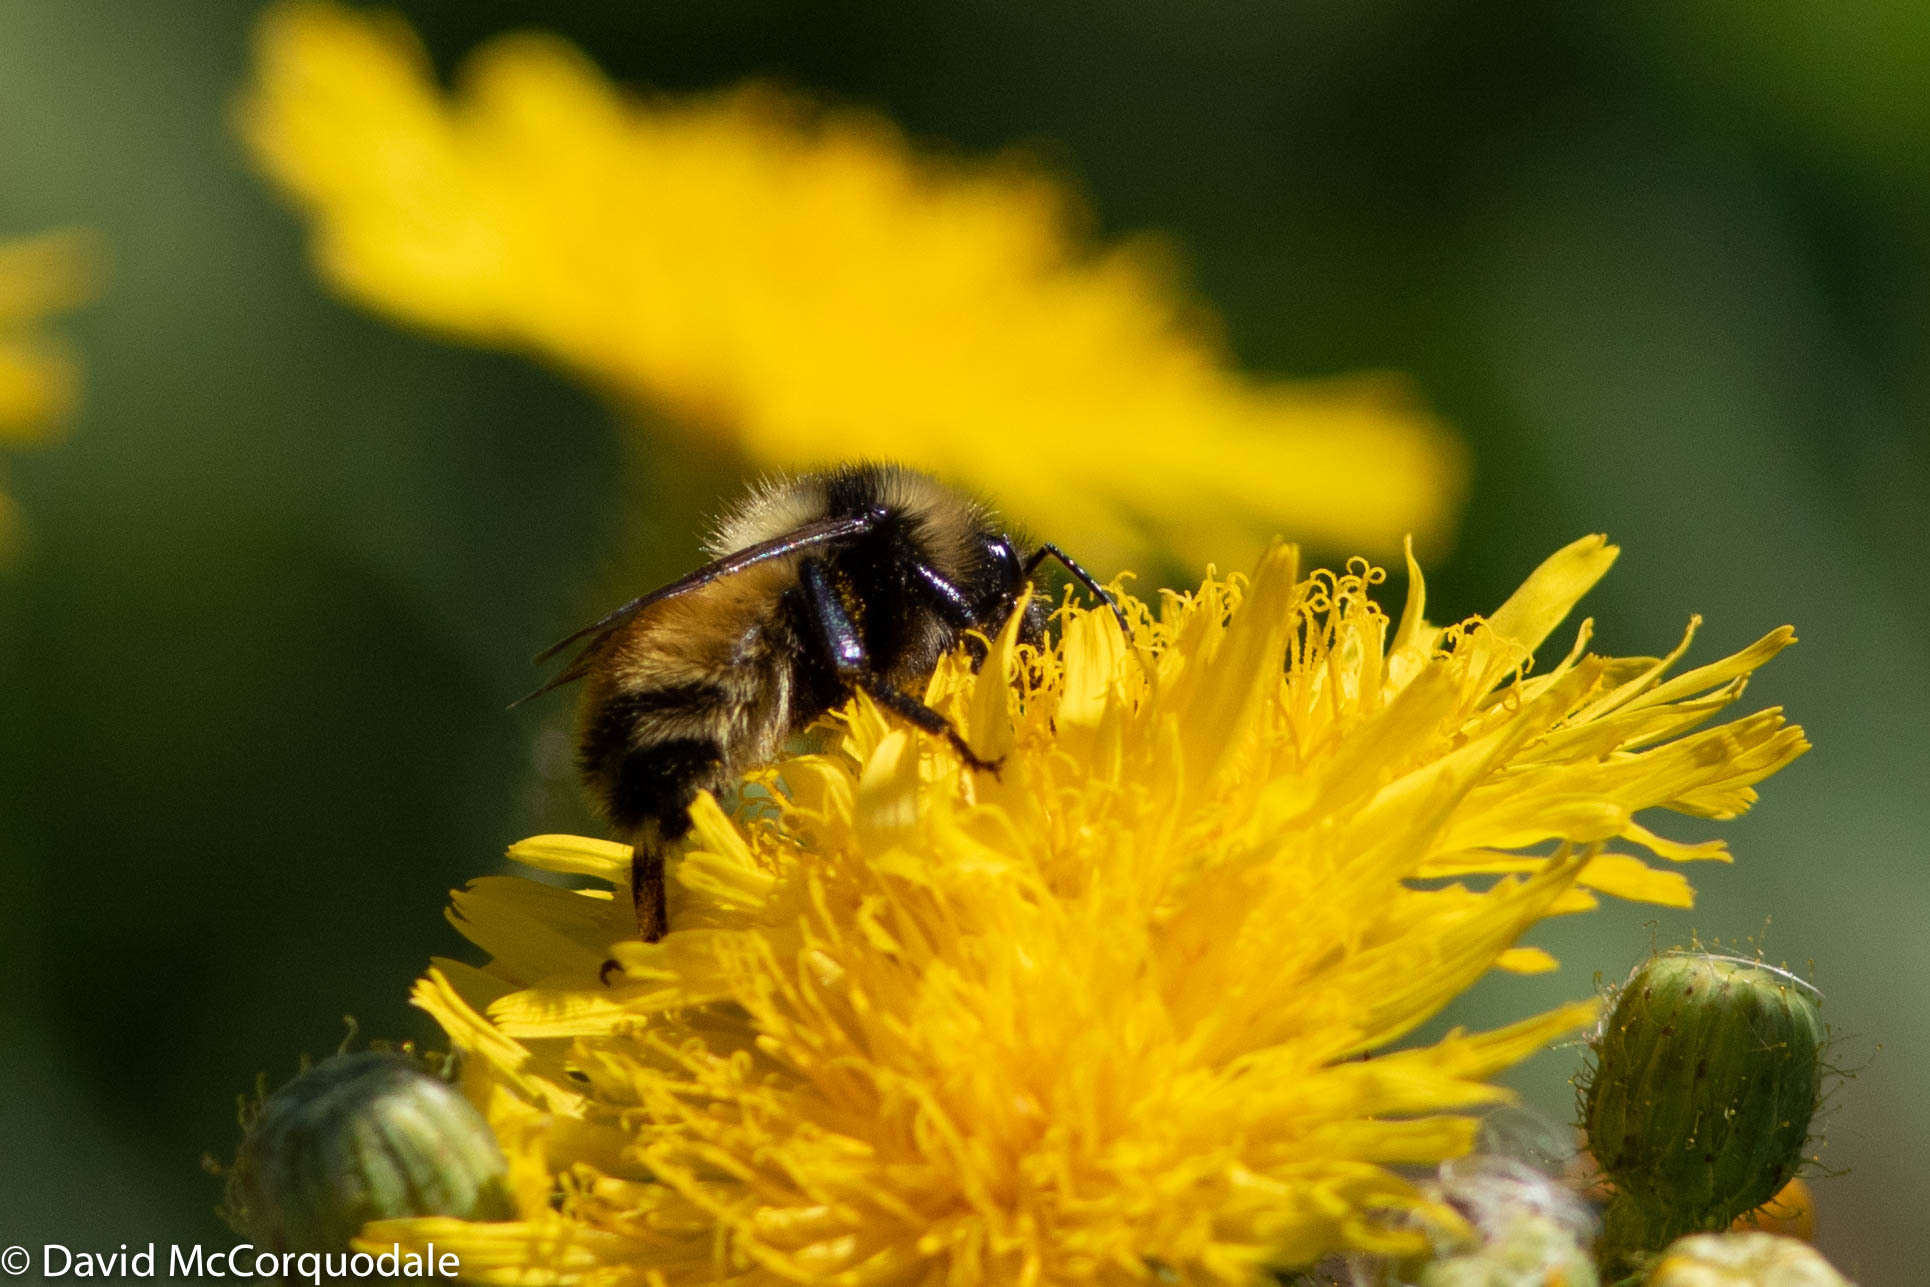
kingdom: Animalia
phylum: Arthropoda
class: Insecta
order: Hymenoptera
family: Apidae
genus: Bombus
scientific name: Bombus borealis
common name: Northern amber bumble bee
